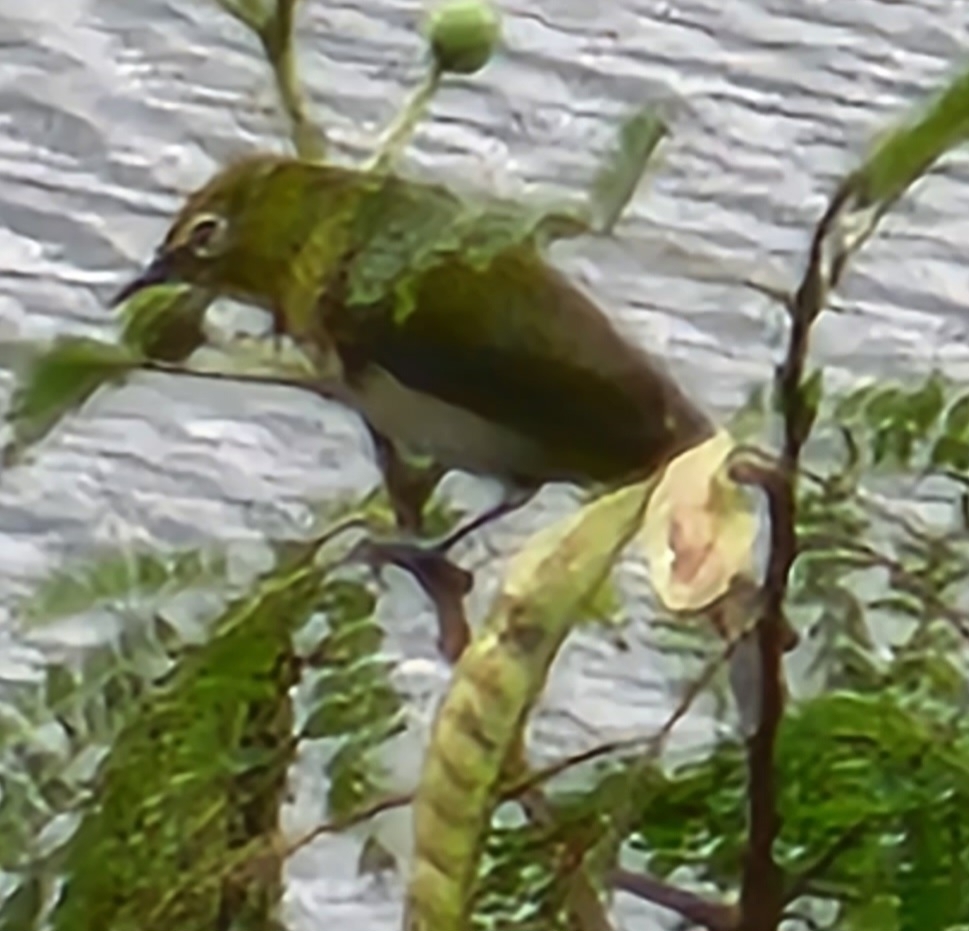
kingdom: Animalia
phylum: Chordata
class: Aves
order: Passeriformes
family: Zosteropidae
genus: Zosterops
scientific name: Zosterops japonicus
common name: Japanese white-eye
